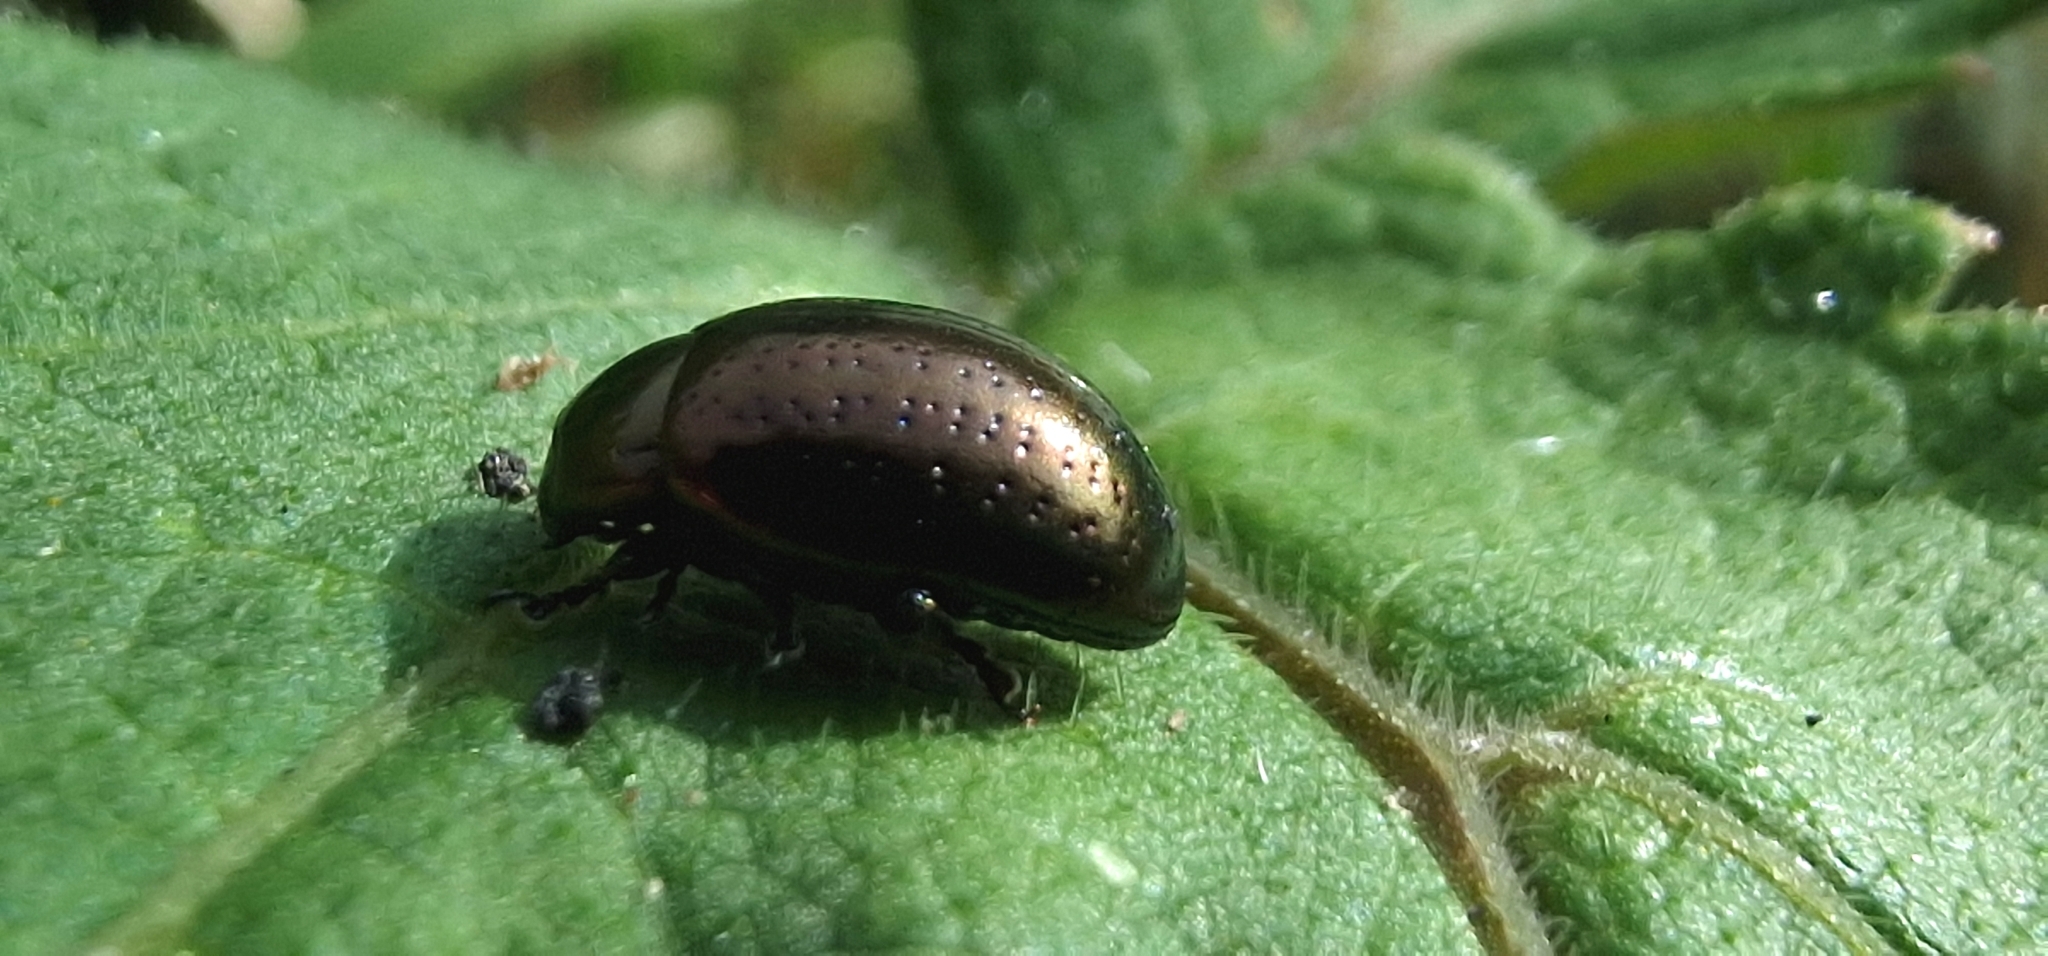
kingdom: Animalia
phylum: Arthropoda
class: Insecta
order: Coleoptera
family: Chrysomelidae
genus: Chrysolina
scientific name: Chrysolina hyperici
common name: St. johnswort beetle
